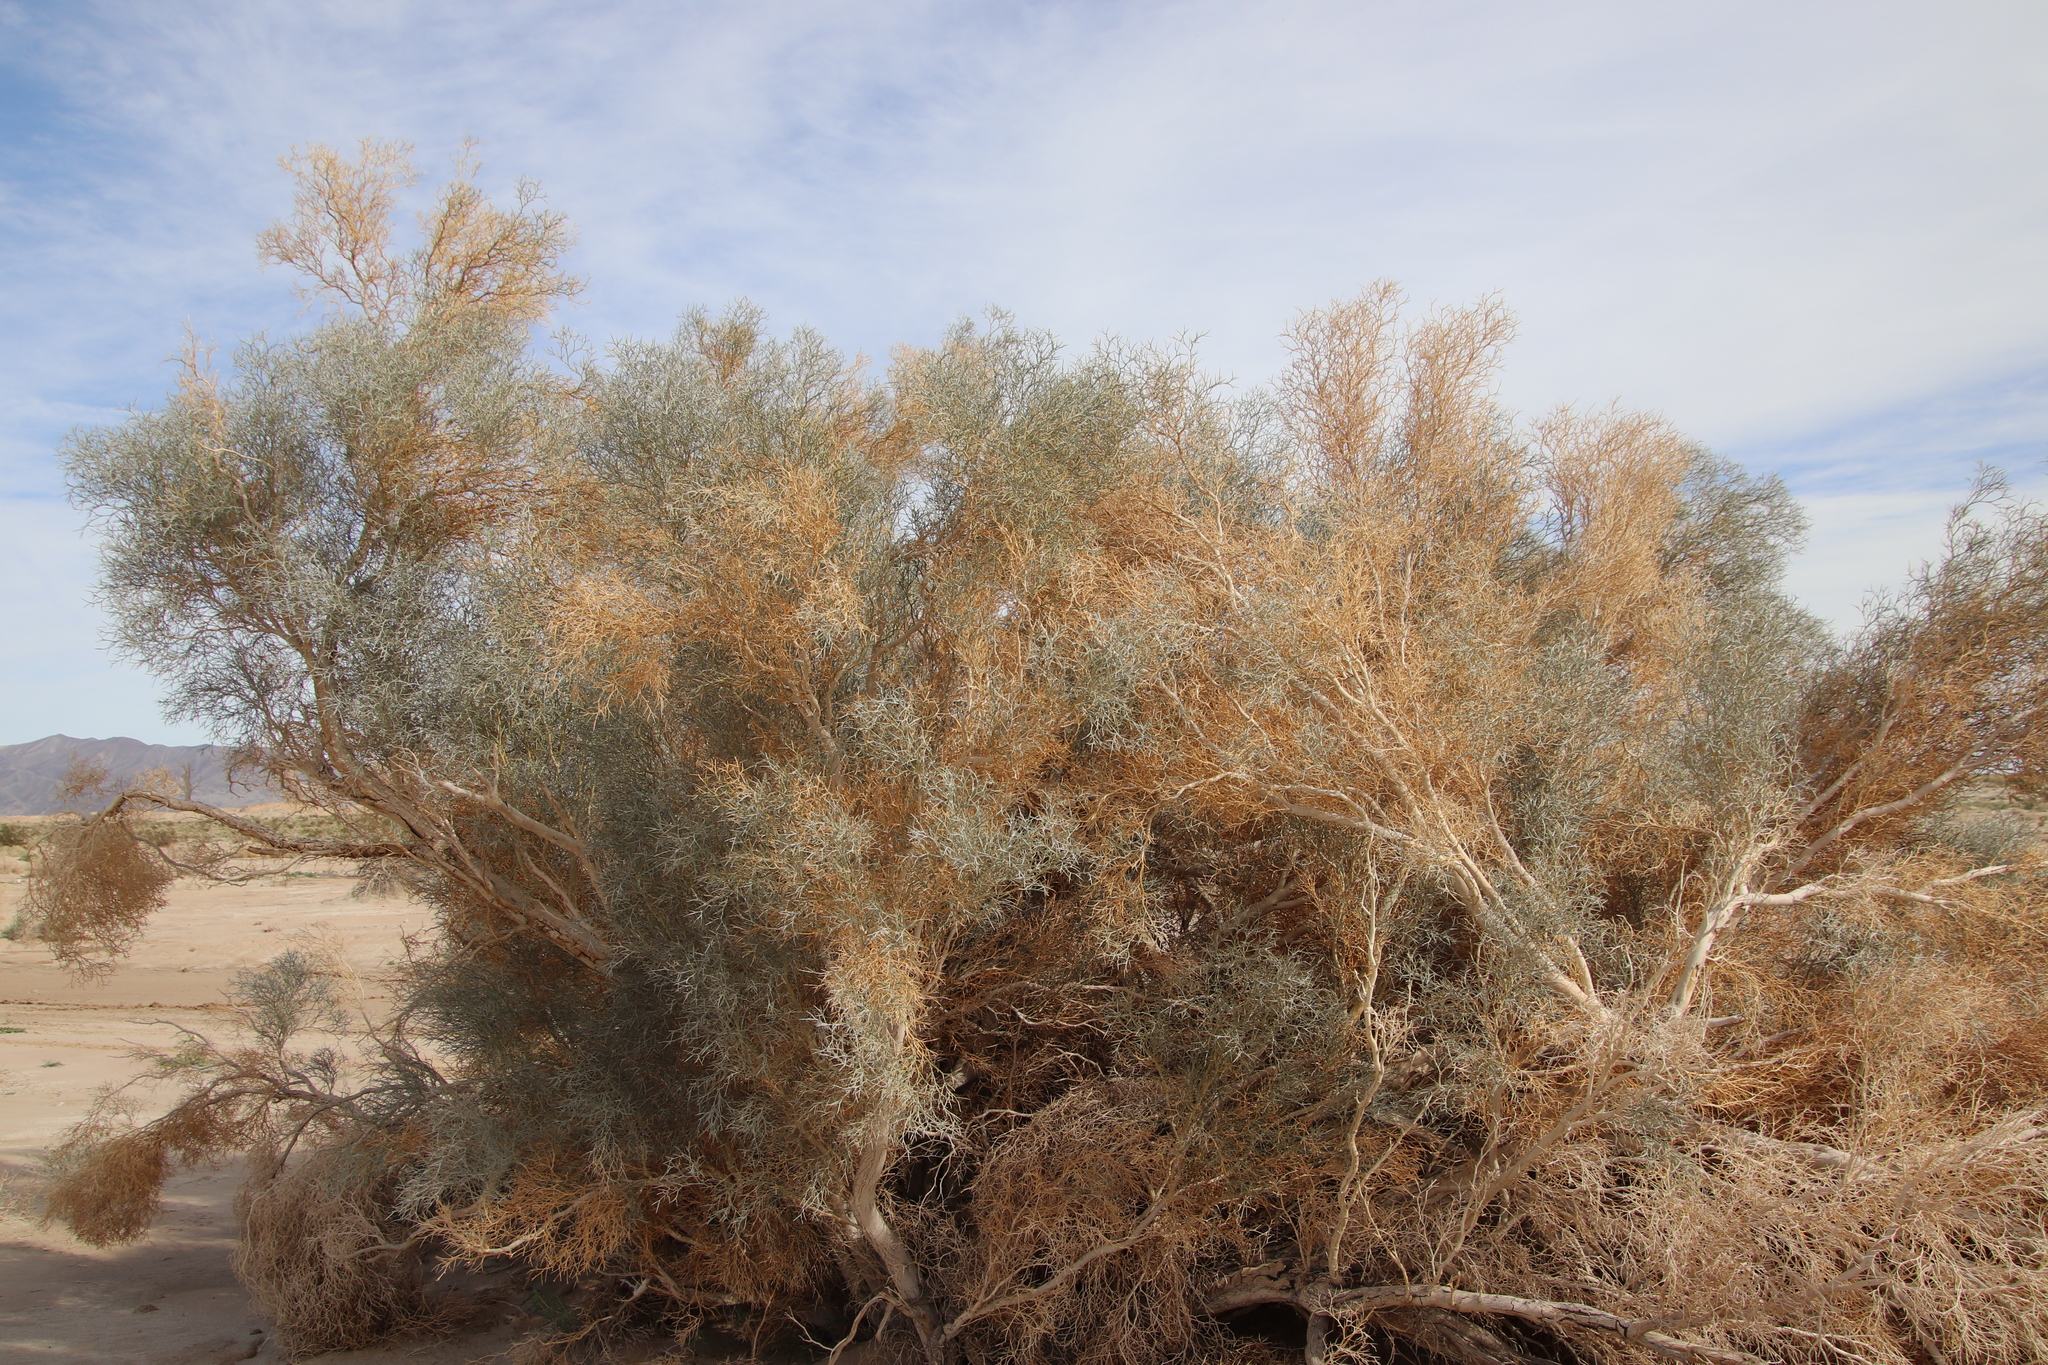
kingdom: Plantae
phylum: Tracheophyta
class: Magnoliopsida
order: Fabales
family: Fabaceae
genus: Psorothamnus
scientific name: Psorothamnus spinosus
